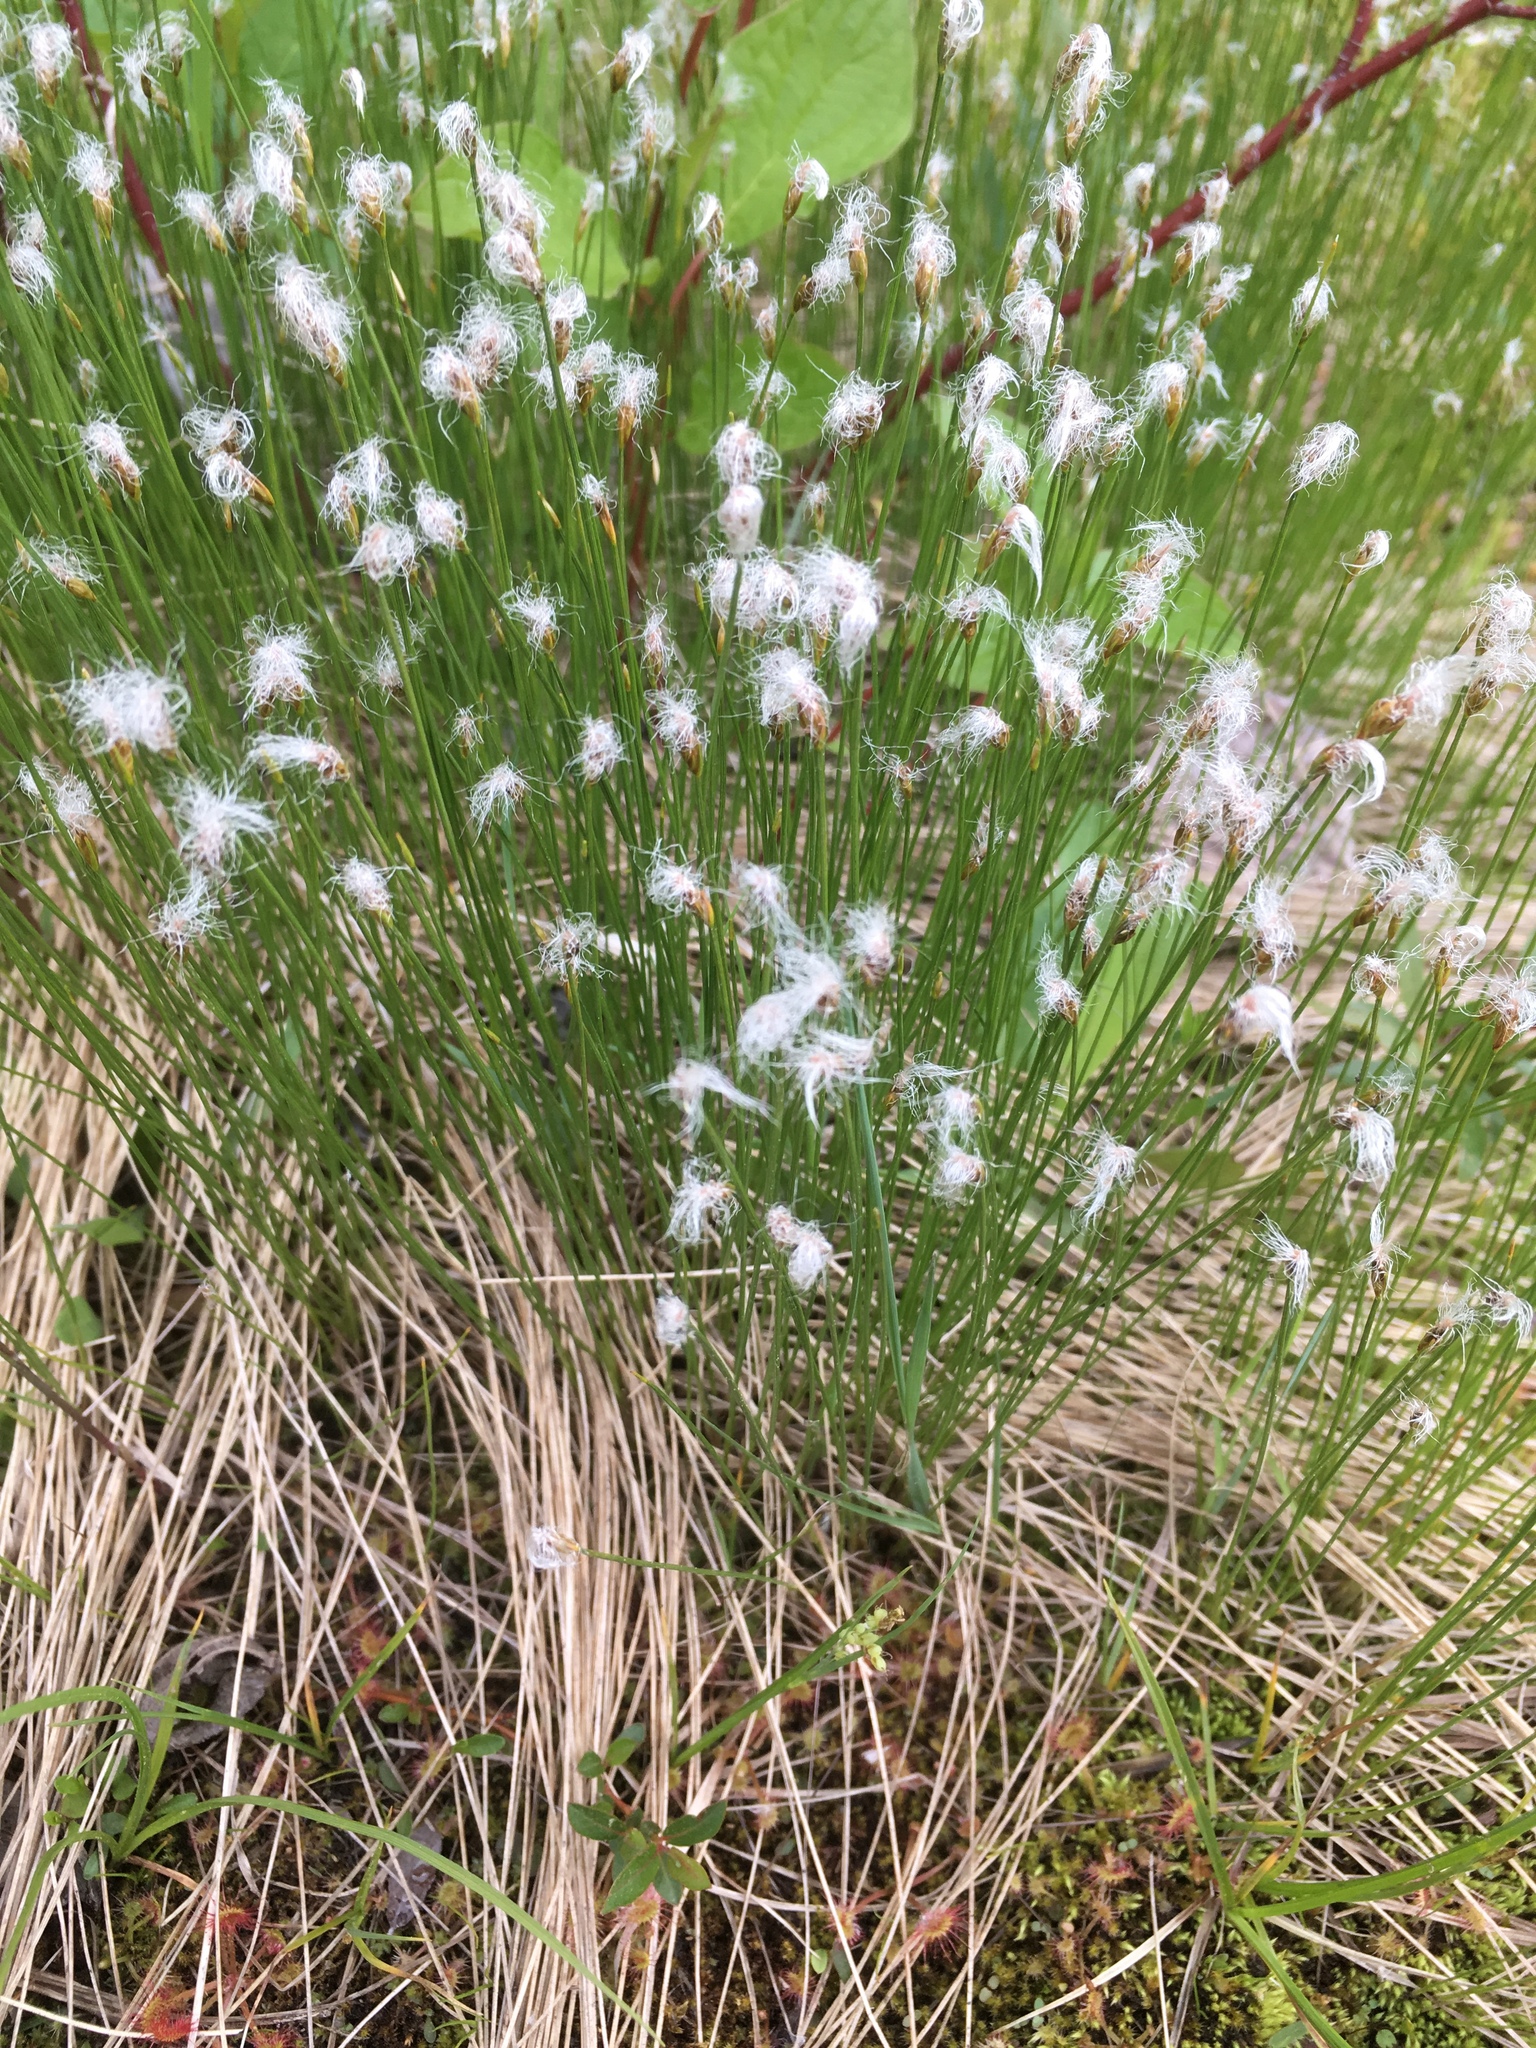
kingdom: Plantae
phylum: Tracheophyta
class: Liliopsida
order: Poales
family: Cyperaceae
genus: Trichophorum
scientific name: Trichophorum alpinum
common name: Alpine bulrush
